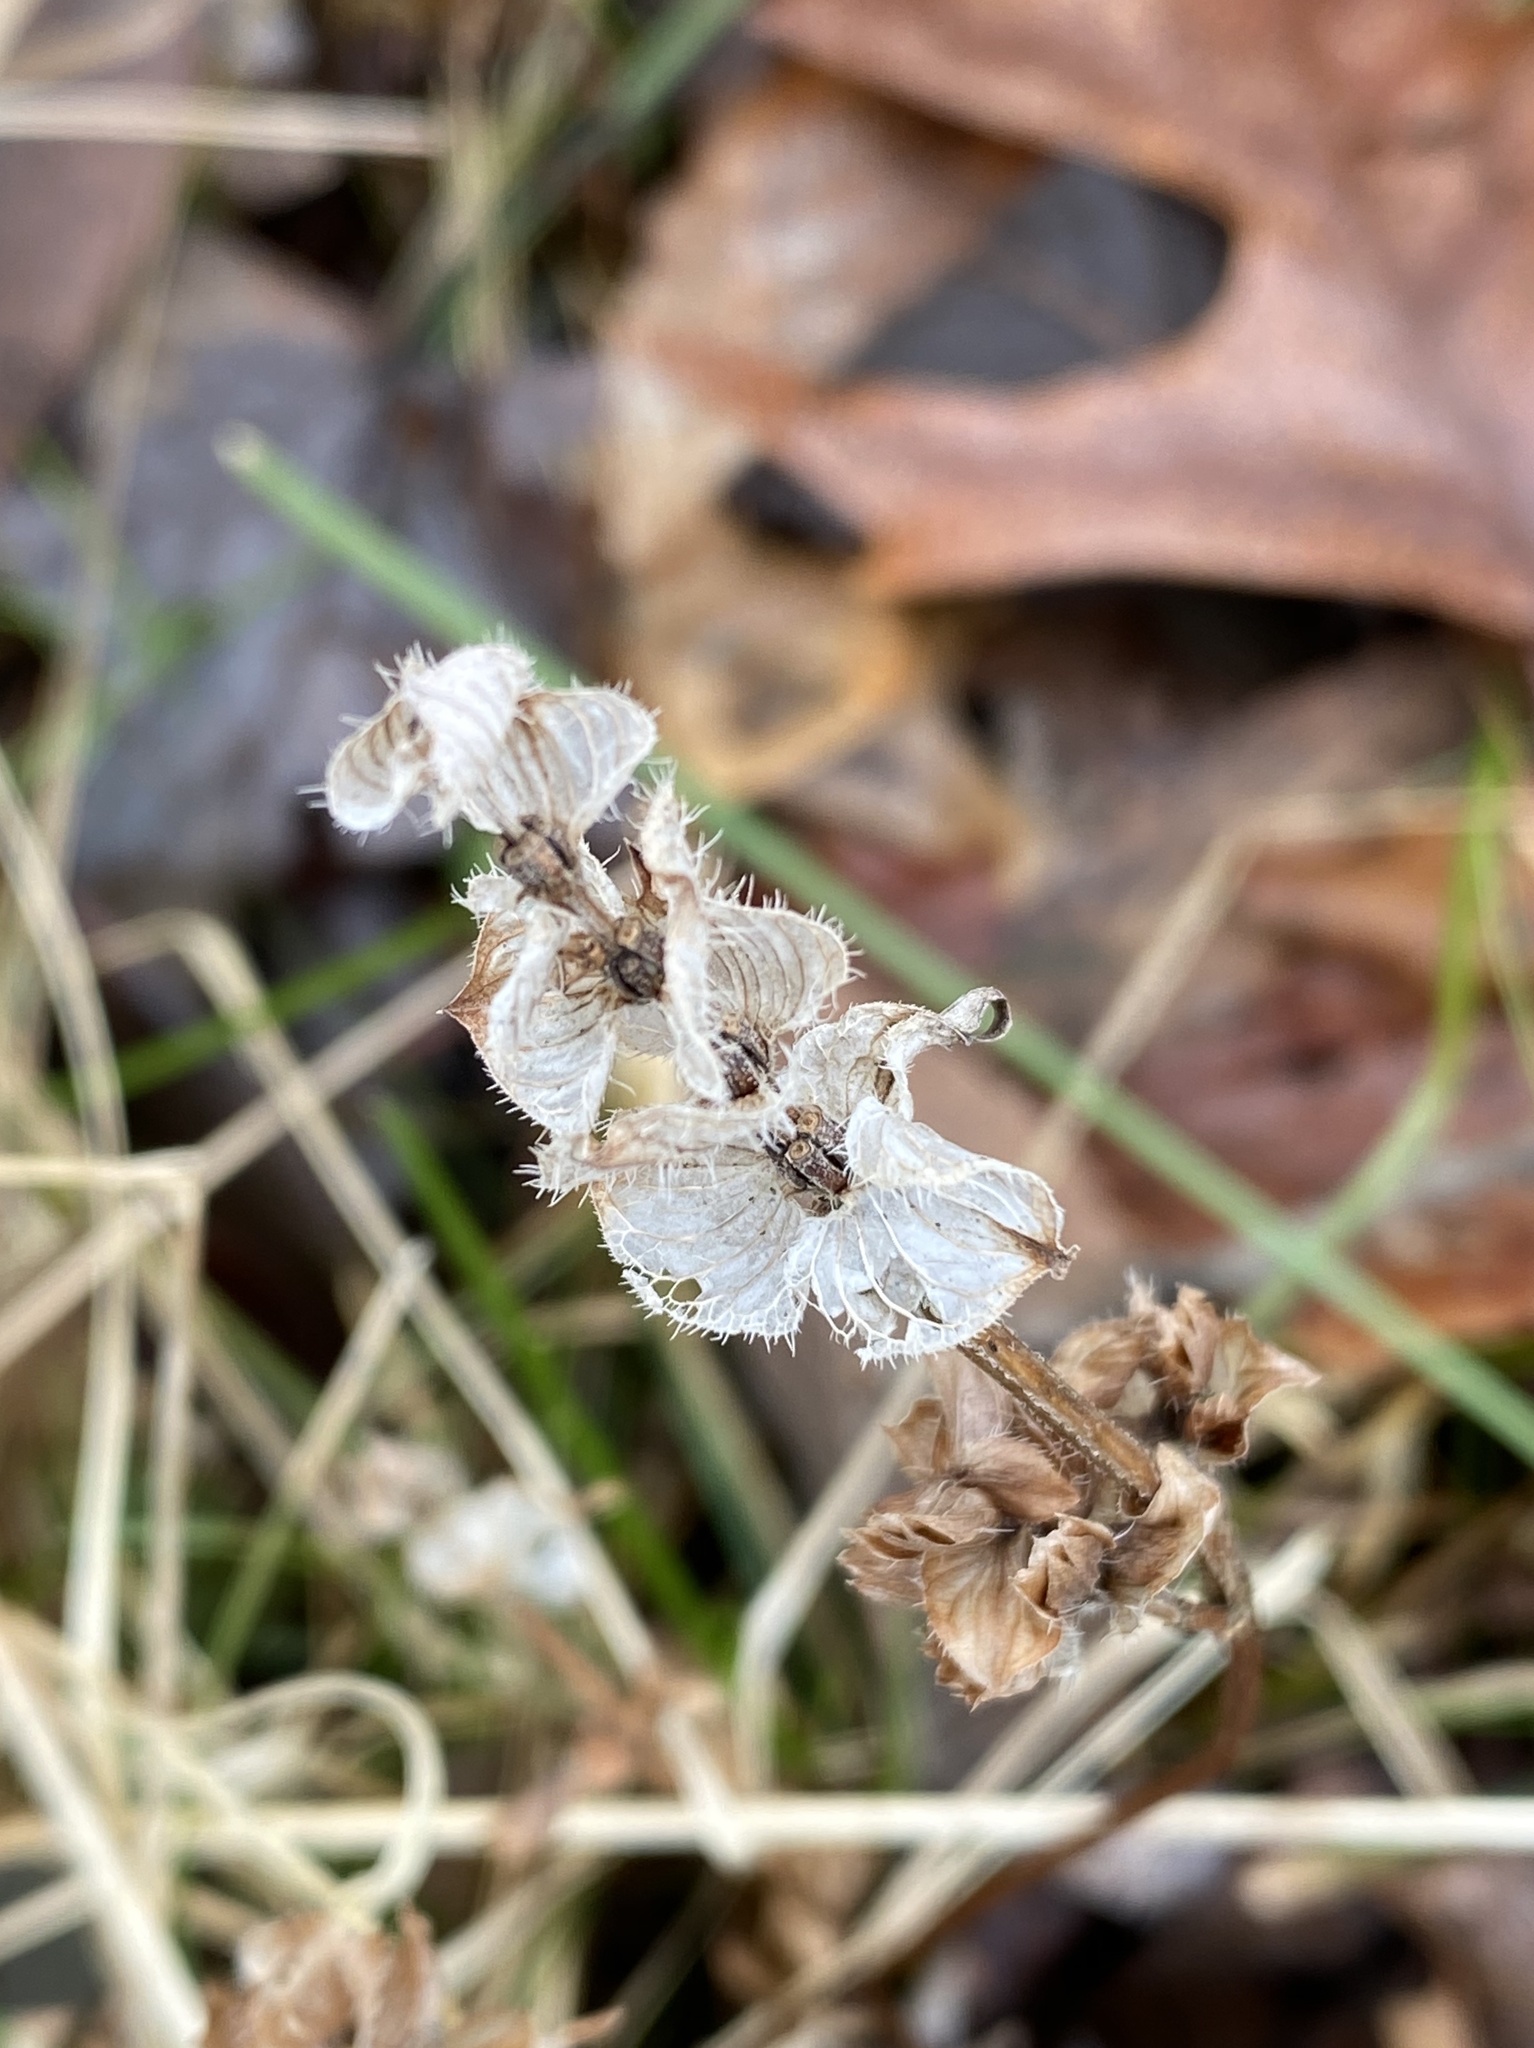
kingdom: Plantae
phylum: Tracheophyta
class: Magnoliopsida
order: Lamiales
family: Lamiaceae
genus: Prunella
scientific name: Prunella vulgaris
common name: Heal-all
